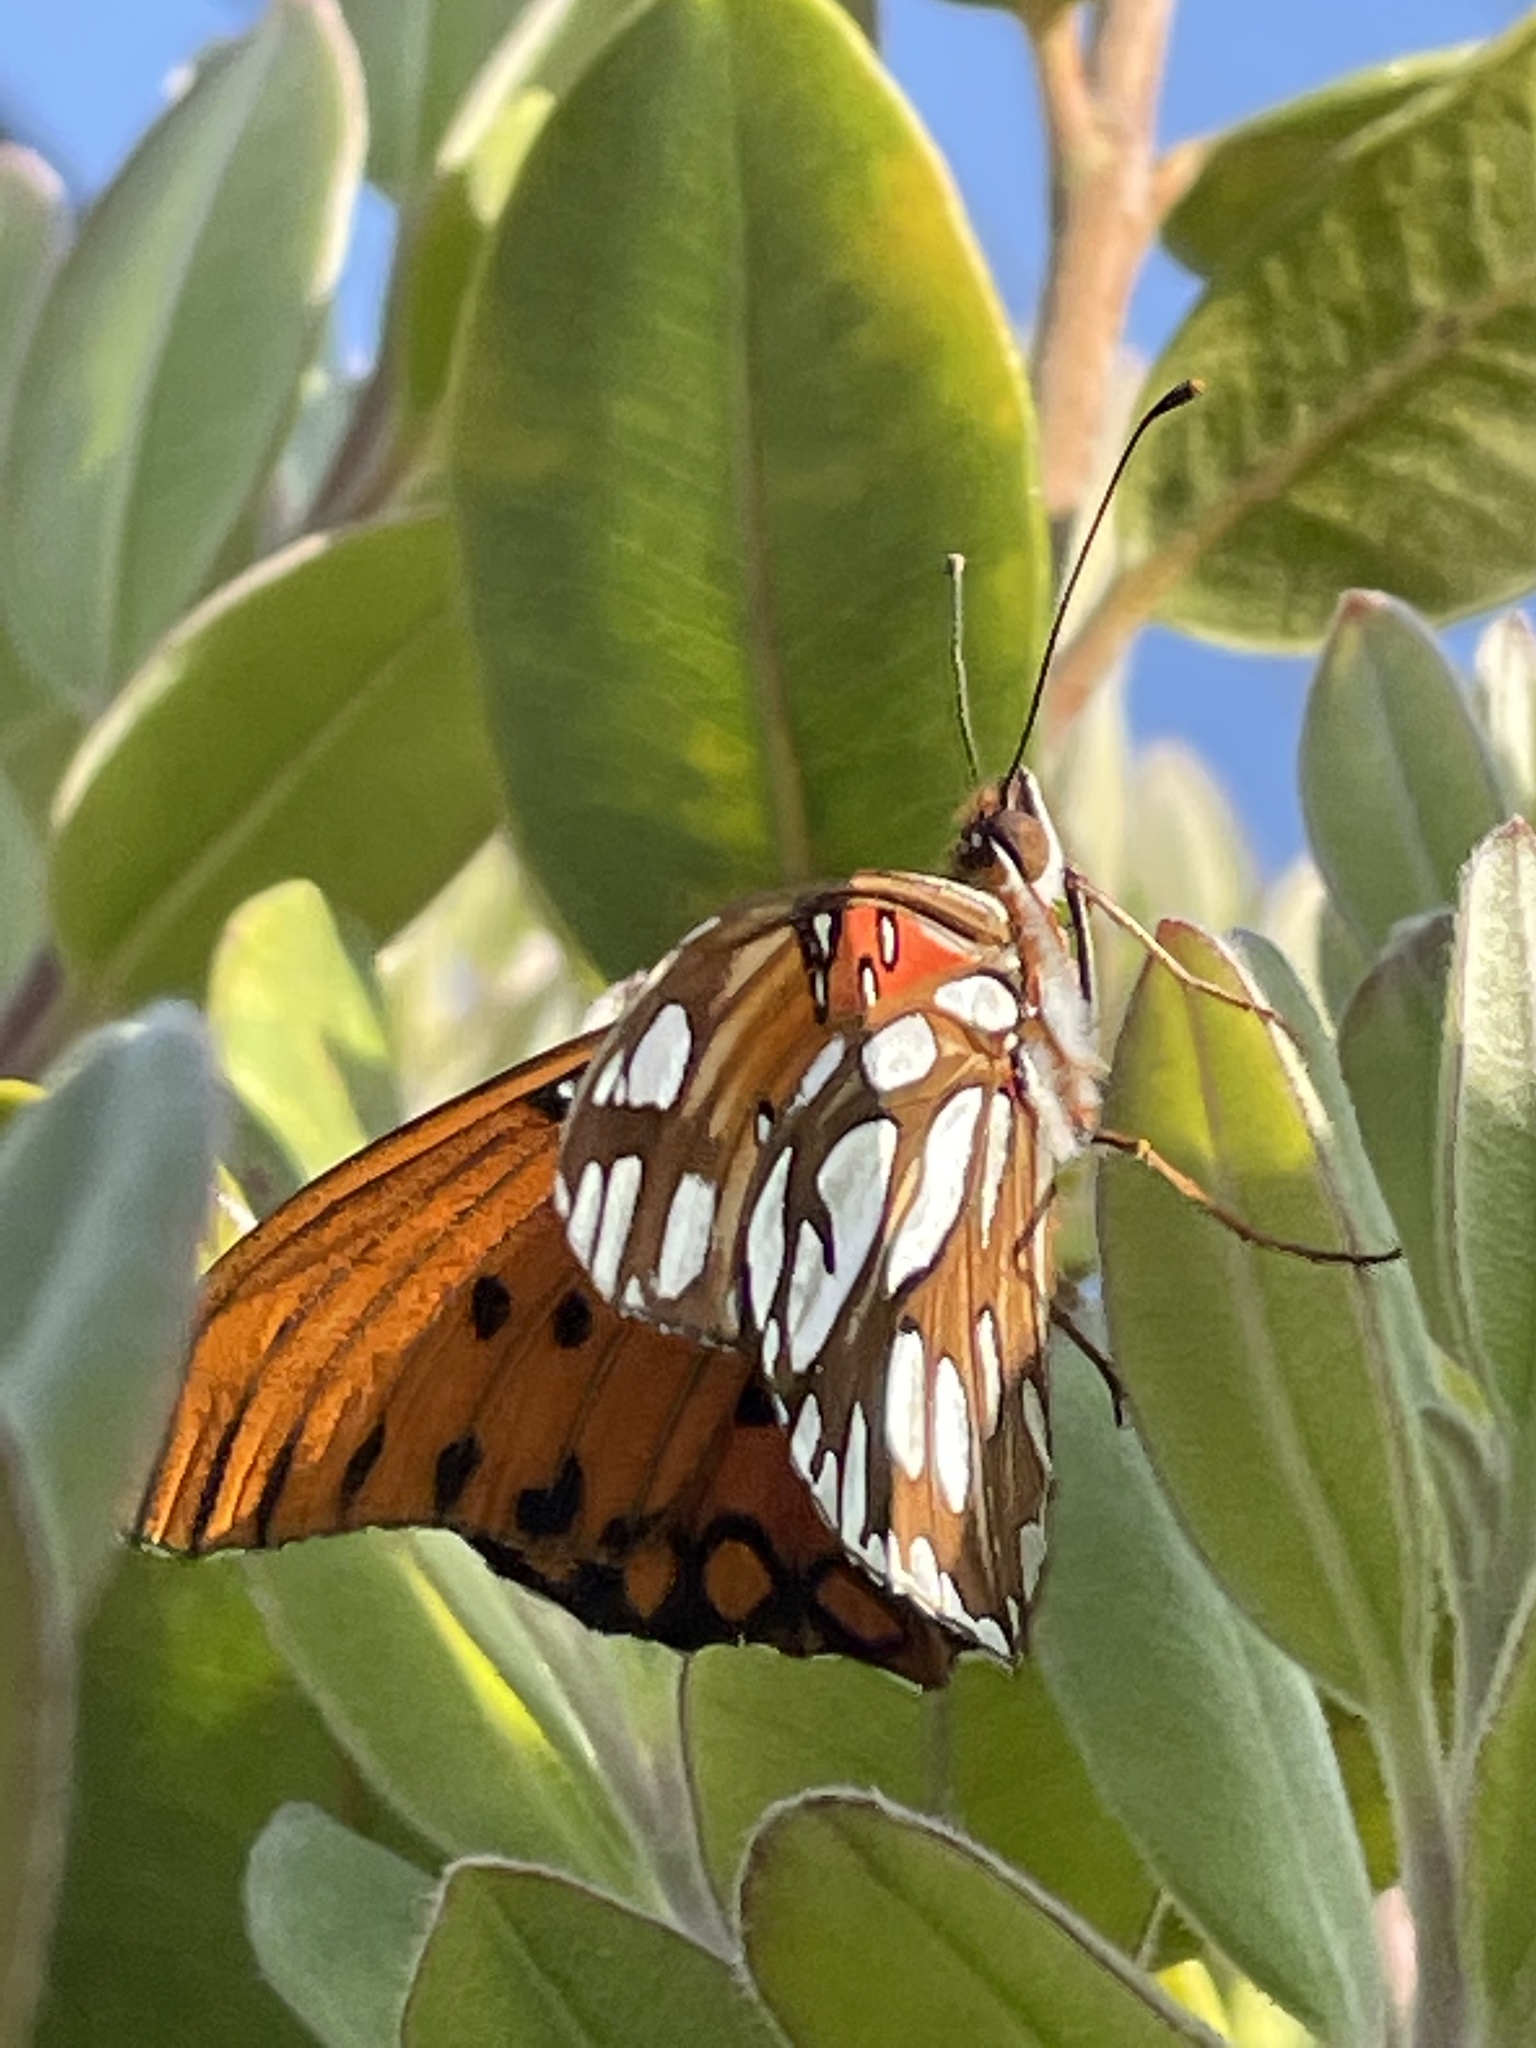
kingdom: Animalia
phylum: Arthropoda
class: Insecta
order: Lepidoptera
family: Nymphalidae
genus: Dione
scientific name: Dione vanillae
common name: Gulf fritillary
